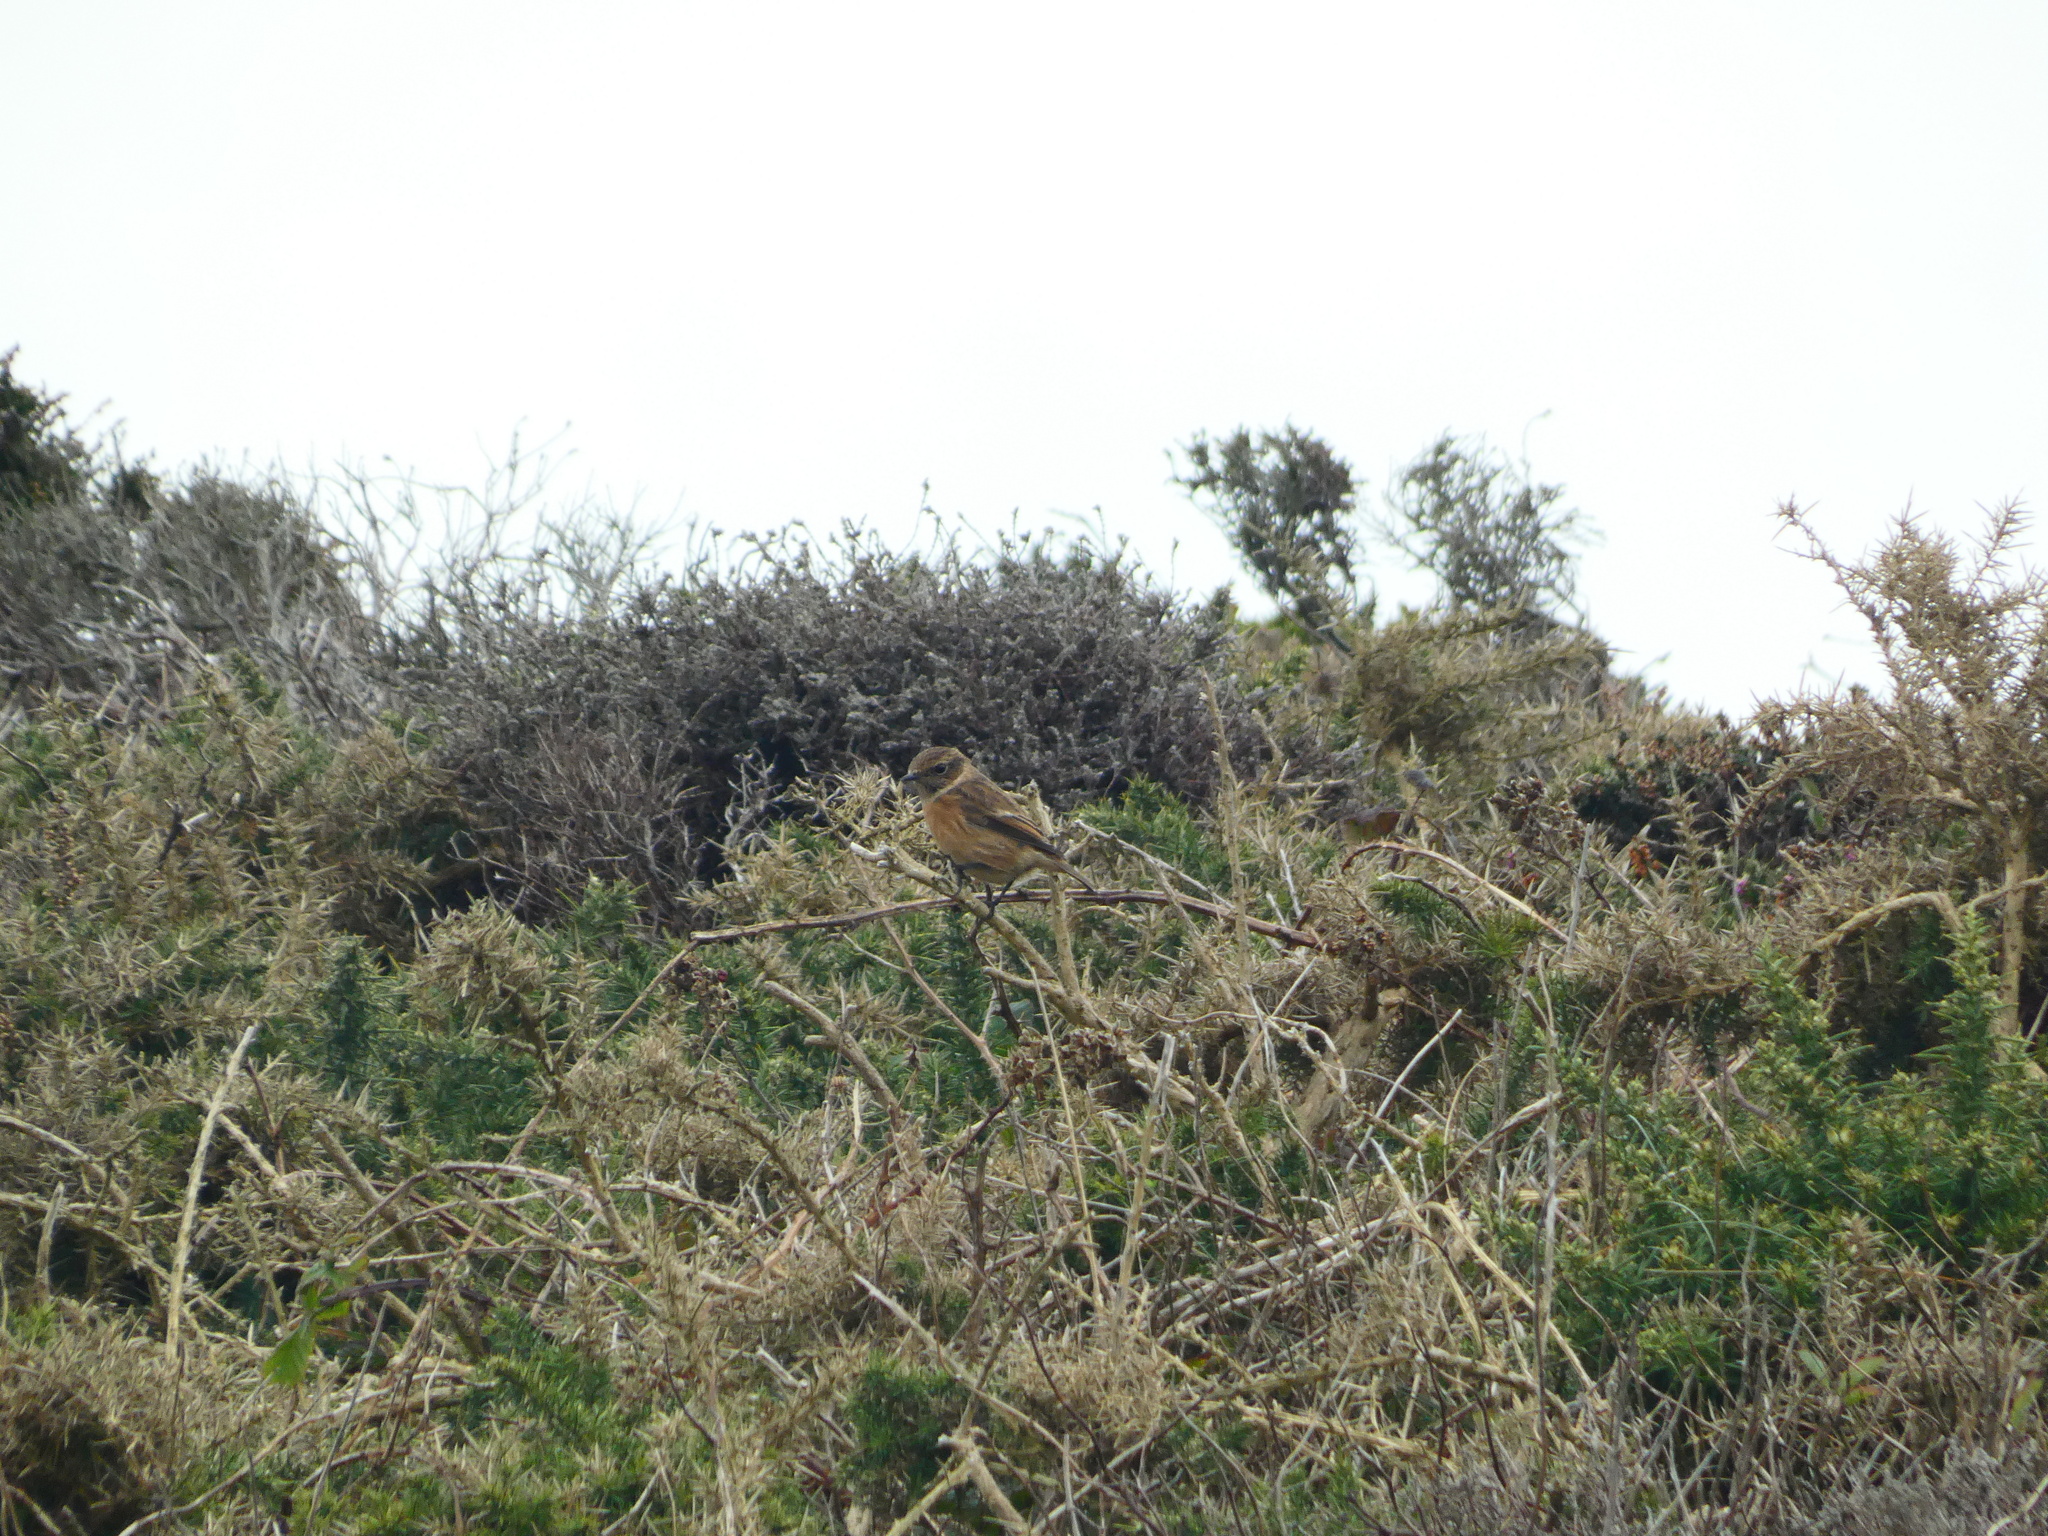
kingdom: Animalia
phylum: Chordata
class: Aves
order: Passeriformes
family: Muscicapidae
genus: Saxicola
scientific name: Saxicola rubicola
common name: European stonechat
